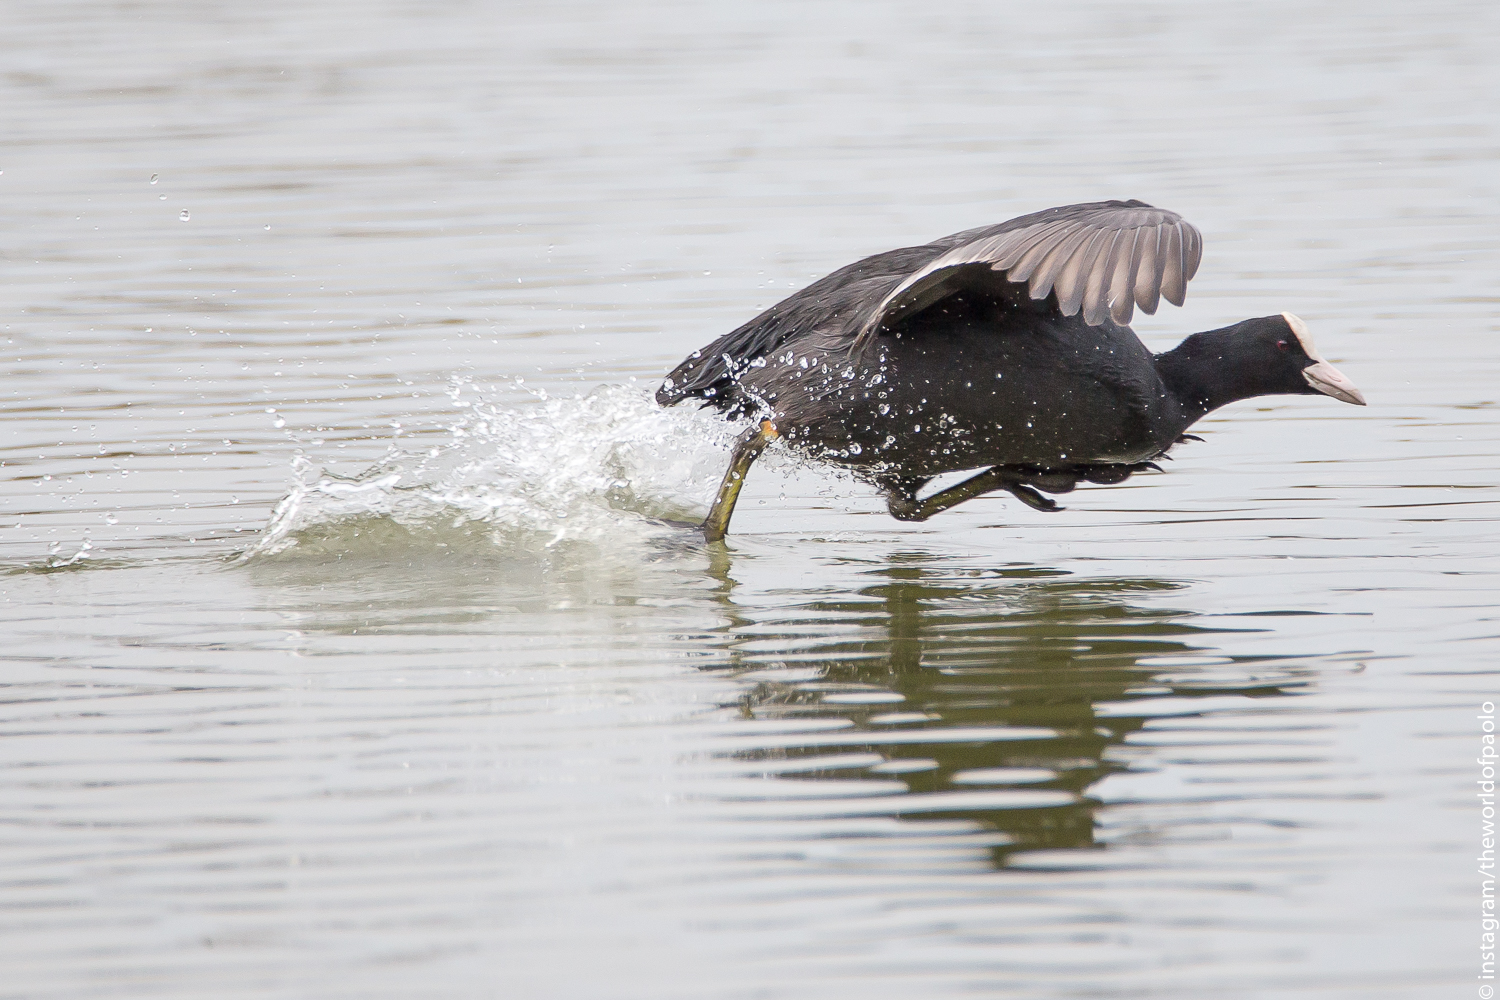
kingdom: Animalia
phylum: Chordata
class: Aves
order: Gruiformes
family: Rallidae
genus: Fulica
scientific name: Fulica atra
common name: Eurasian coot
